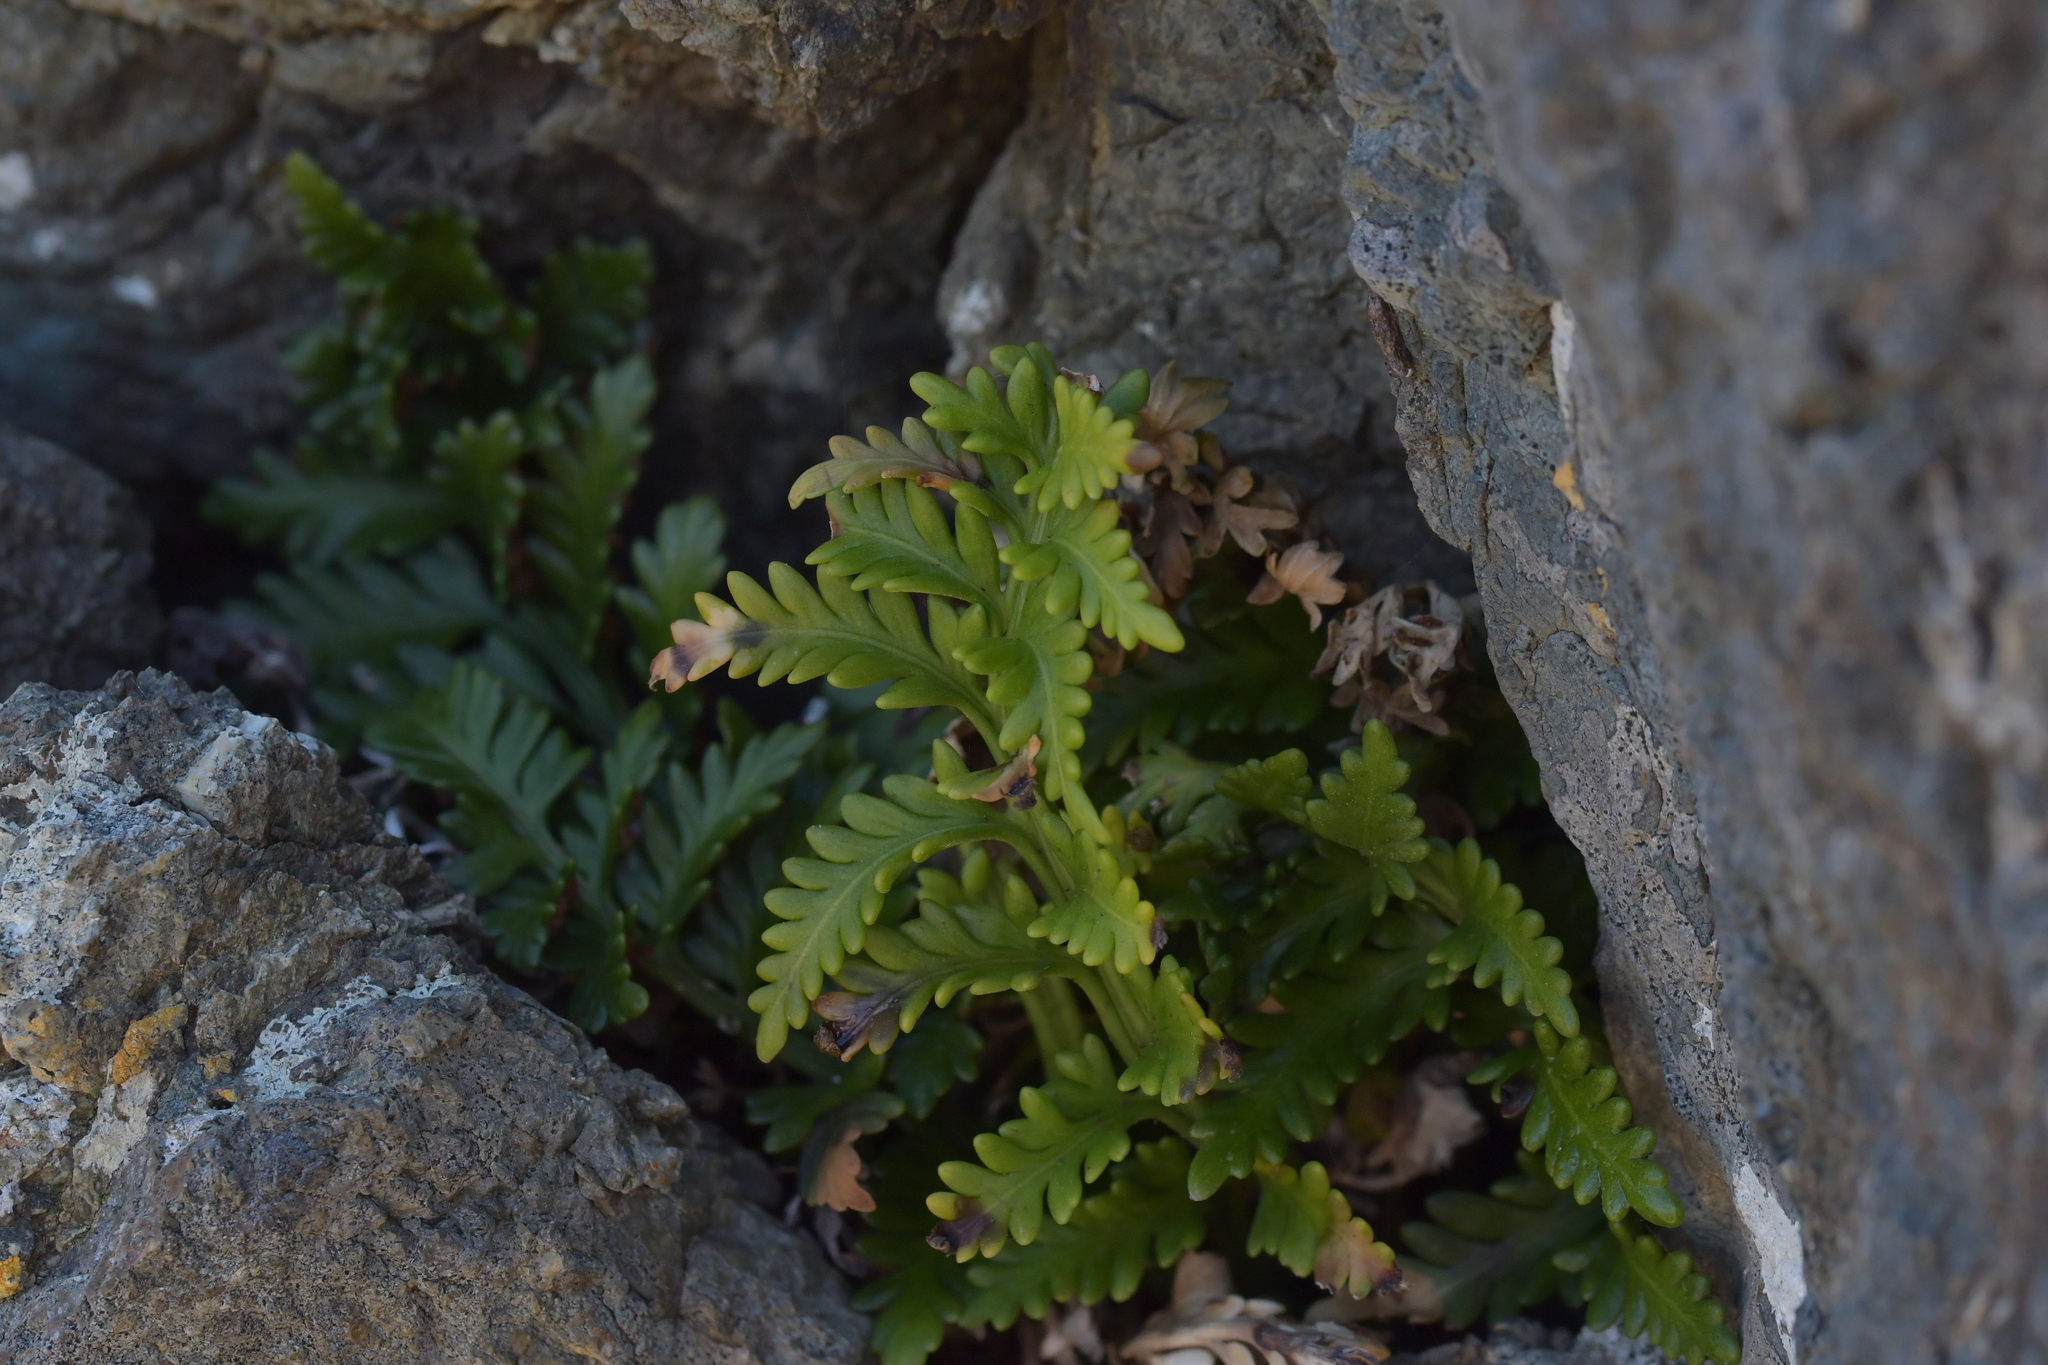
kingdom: Plantae
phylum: Tracheophyta
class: Polypodiopsida
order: Polypodiales
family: Aspleniaceae
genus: Asplenium
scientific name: Asplenium appendiculatum
